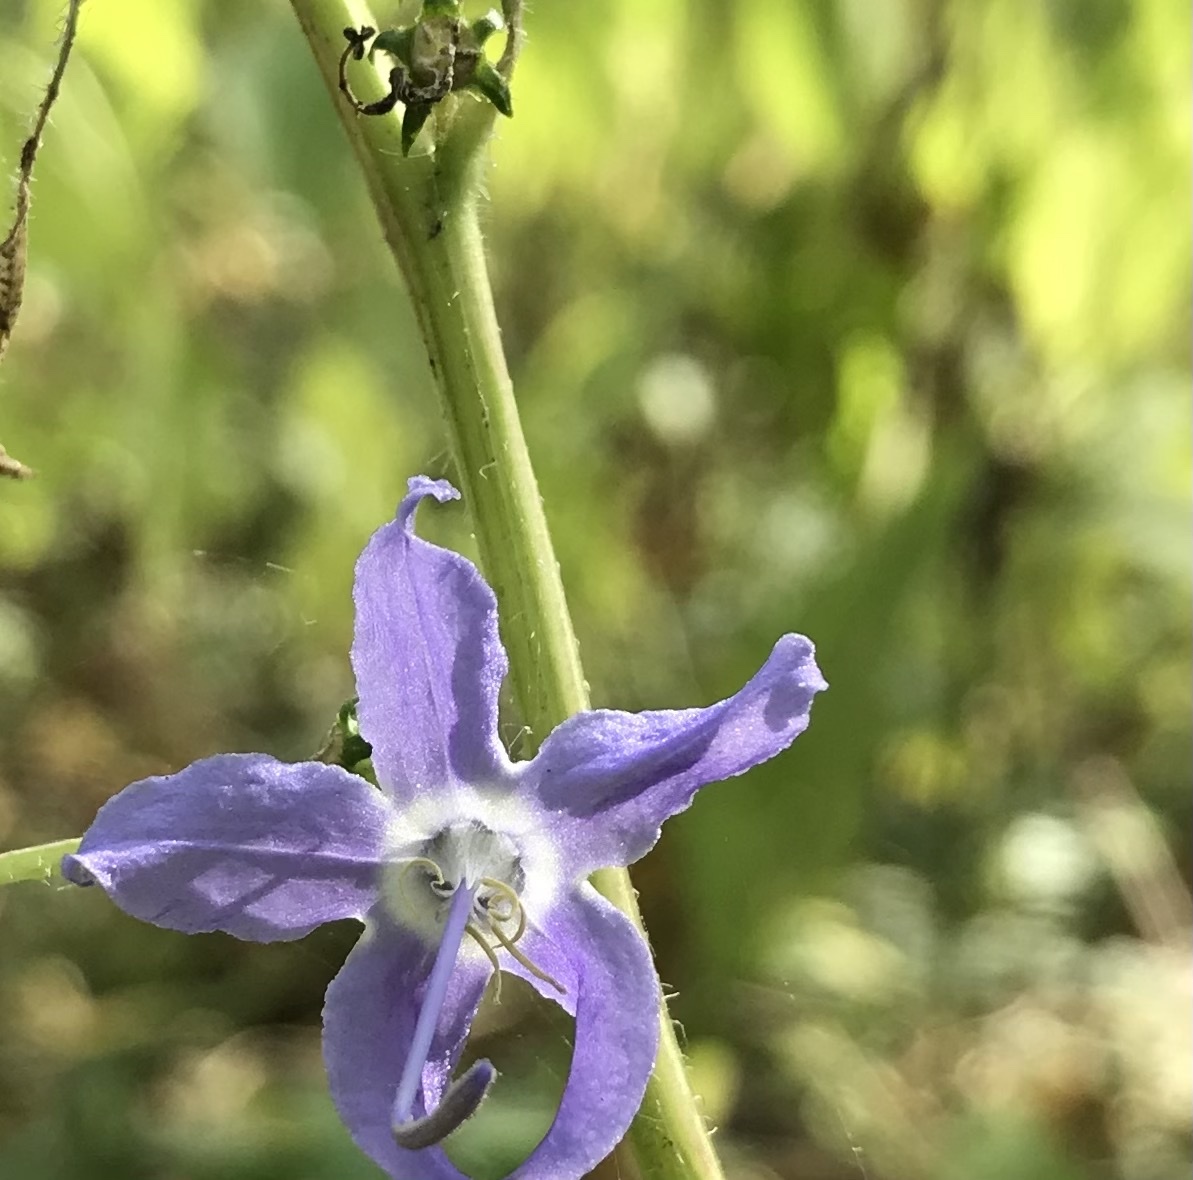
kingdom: Plantae
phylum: Tracheophyta
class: Magnoliopsida
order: Asterales
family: Campanulaceae
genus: Campanulastrum
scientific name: Campanulastrum americanum
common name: American bellflower
